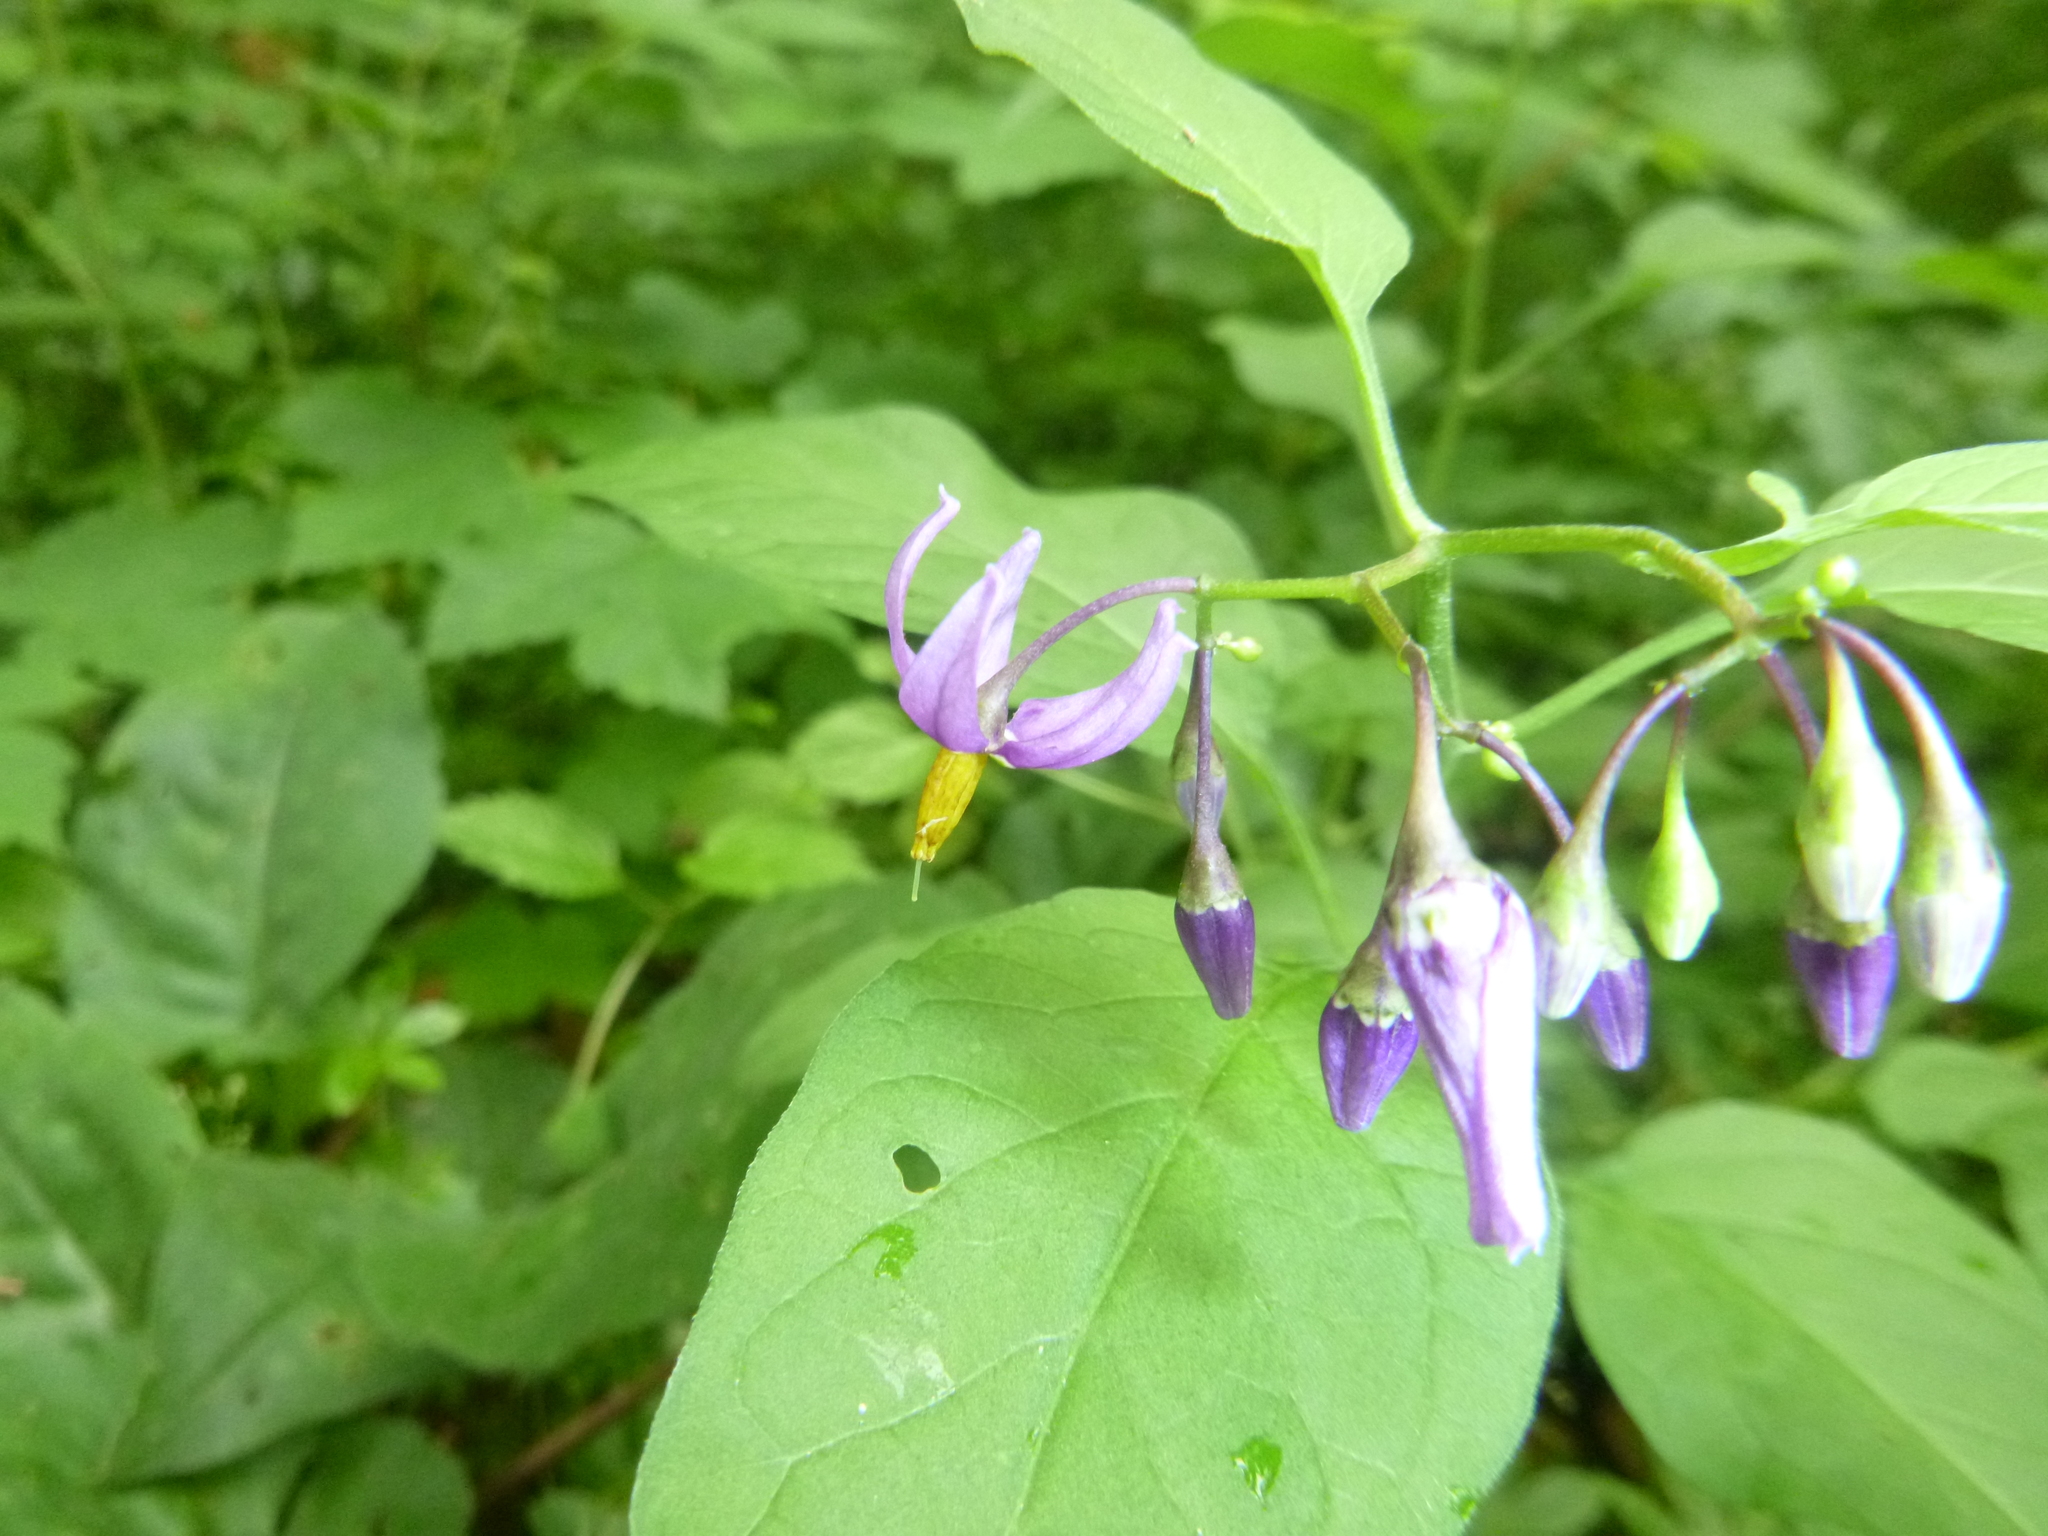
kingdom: Plantae
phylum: Tracheophyta
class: Magnoliopsida
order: Solanales
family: Solanaceae
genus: Solanum
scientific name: Solanum dulcamara
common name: Climbing nightshade
